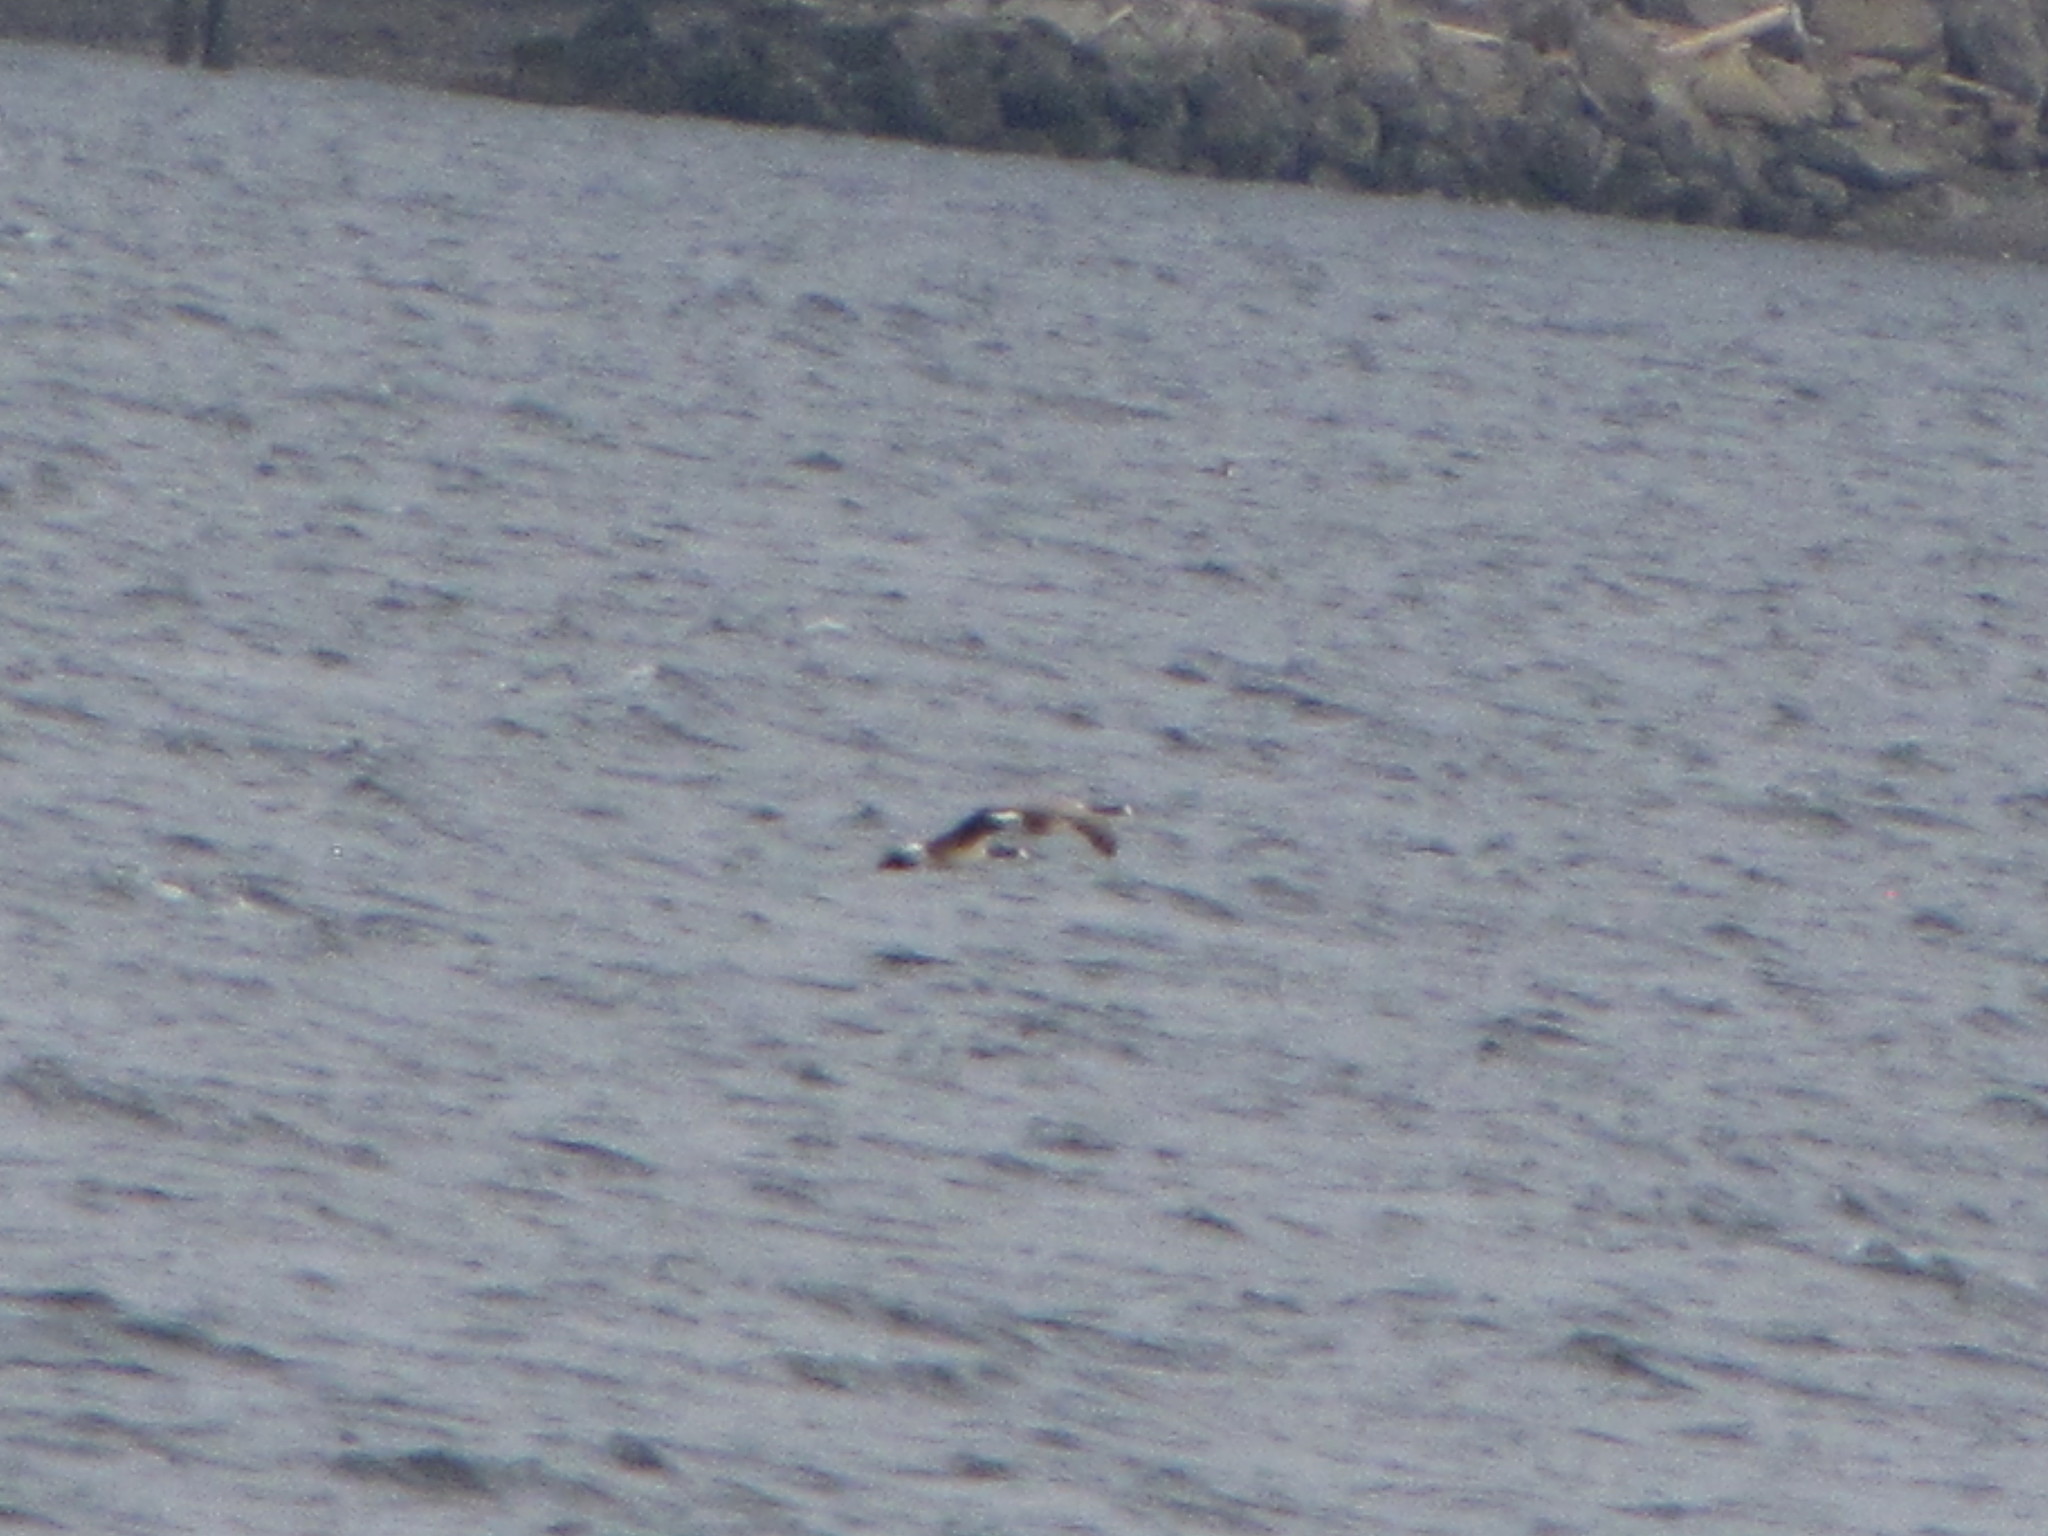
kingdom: Animalia
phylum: Chordata
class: Aves
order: Anseriformes
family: Anatidae
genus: Branta
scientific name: Branta canadensis
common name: Canada goose
